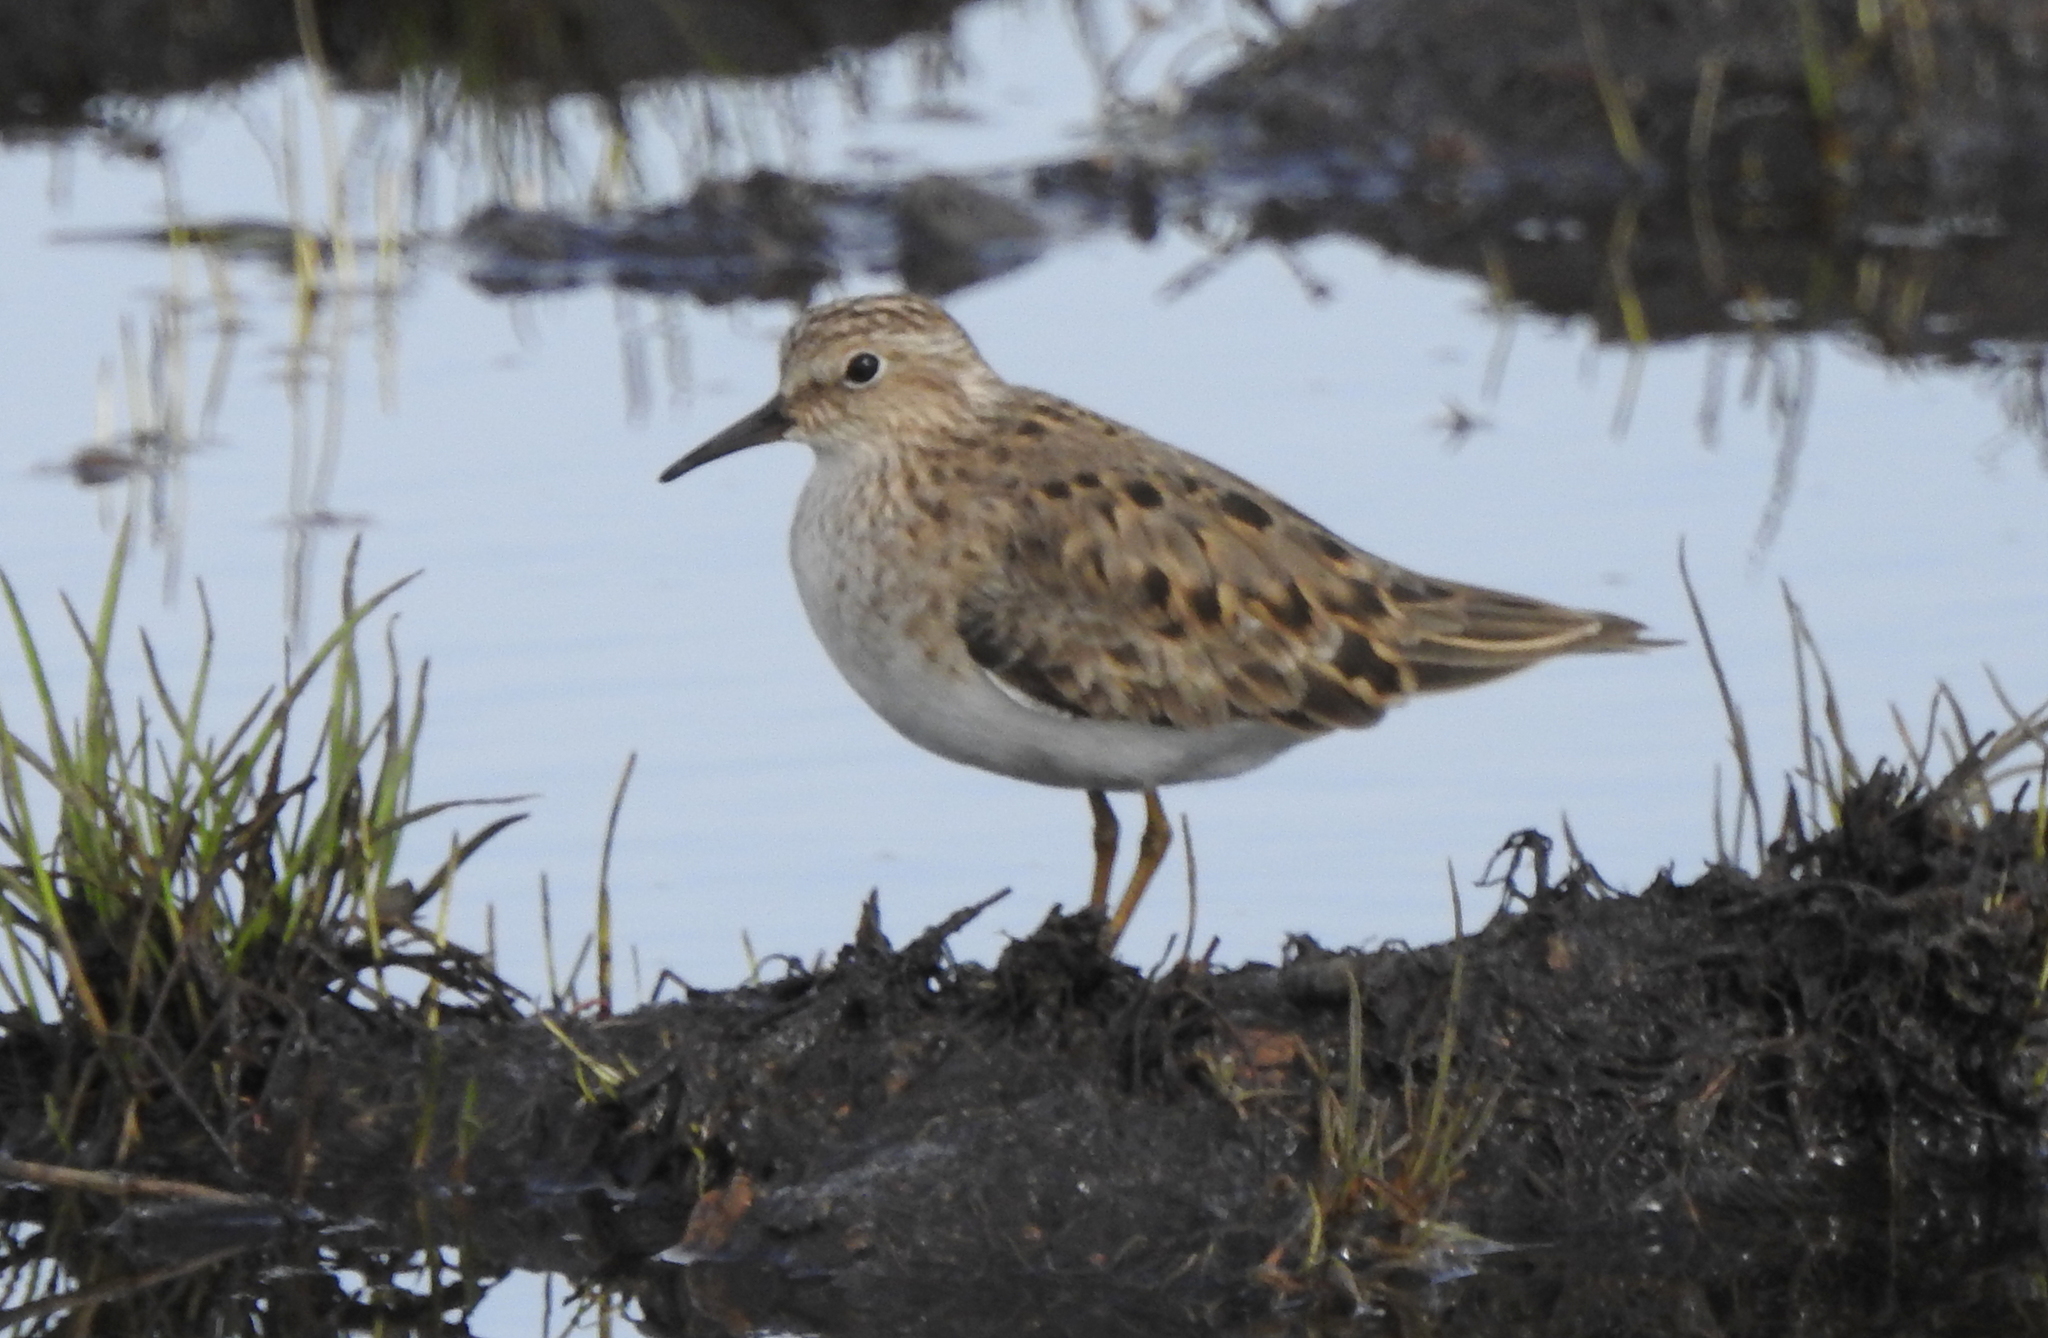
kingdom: Animalia
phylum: Chordata
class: Aves
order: Charadriiformes
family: Scolopacidae
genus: Calidris
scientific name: Calidris temminckii
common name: Temminck's stint
